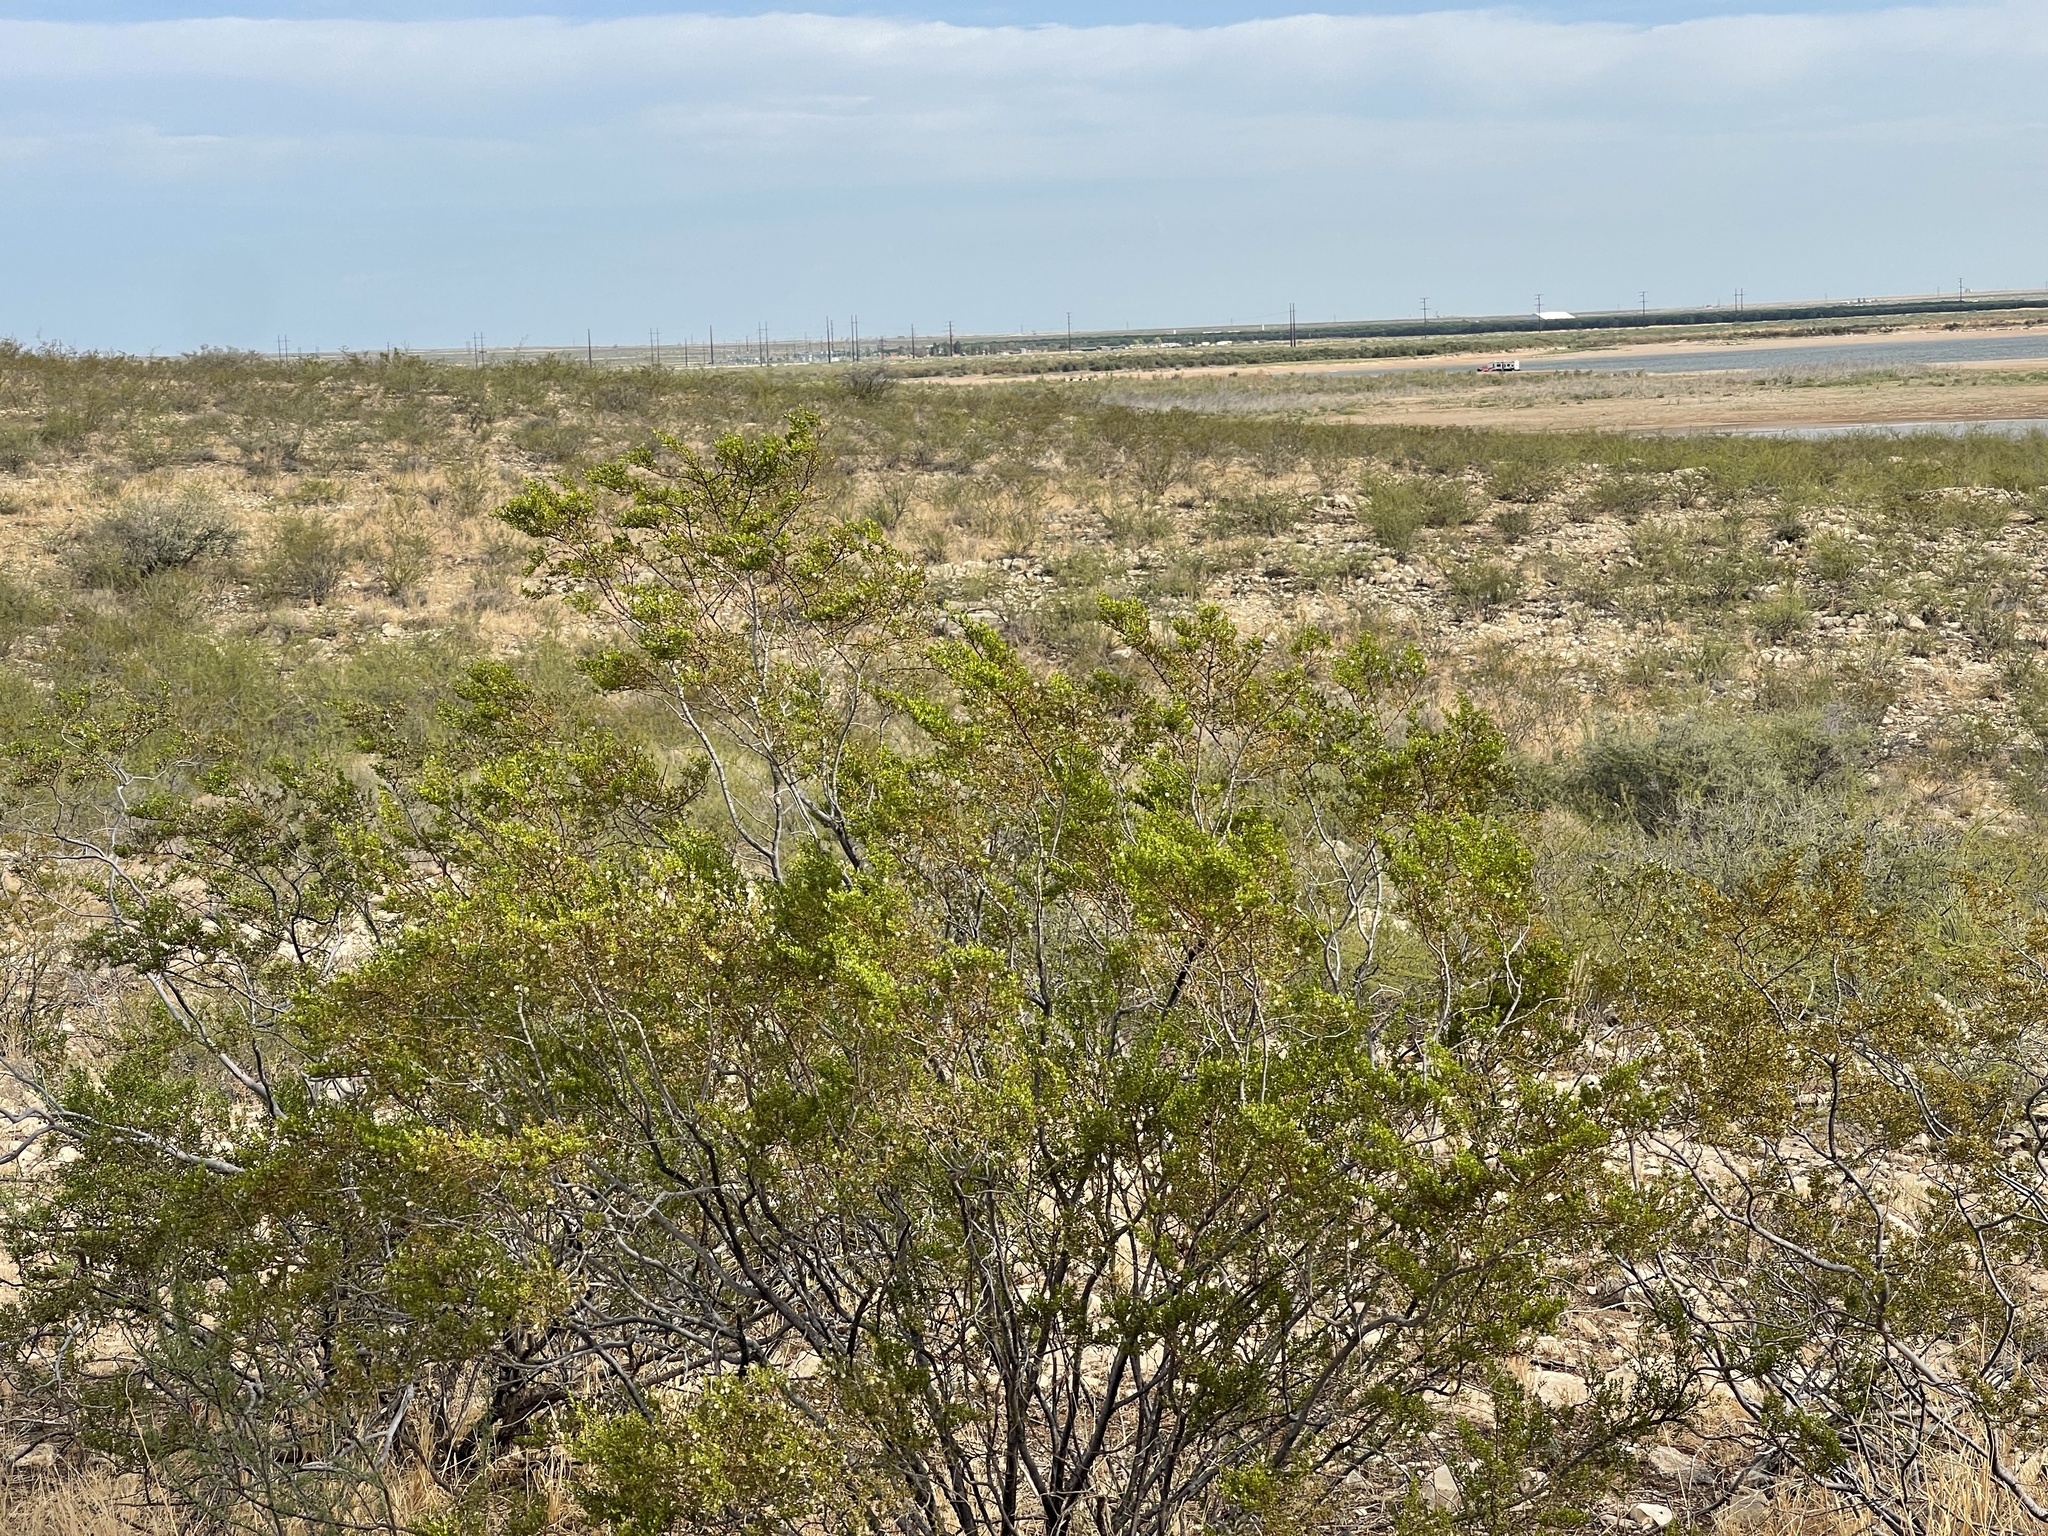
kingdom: Plantae
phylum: Tracheophyta
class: Magnoliopsida
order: Zygophyllales
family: Zygophyllaceae
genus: Larrea
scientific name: Larrea tridentata
